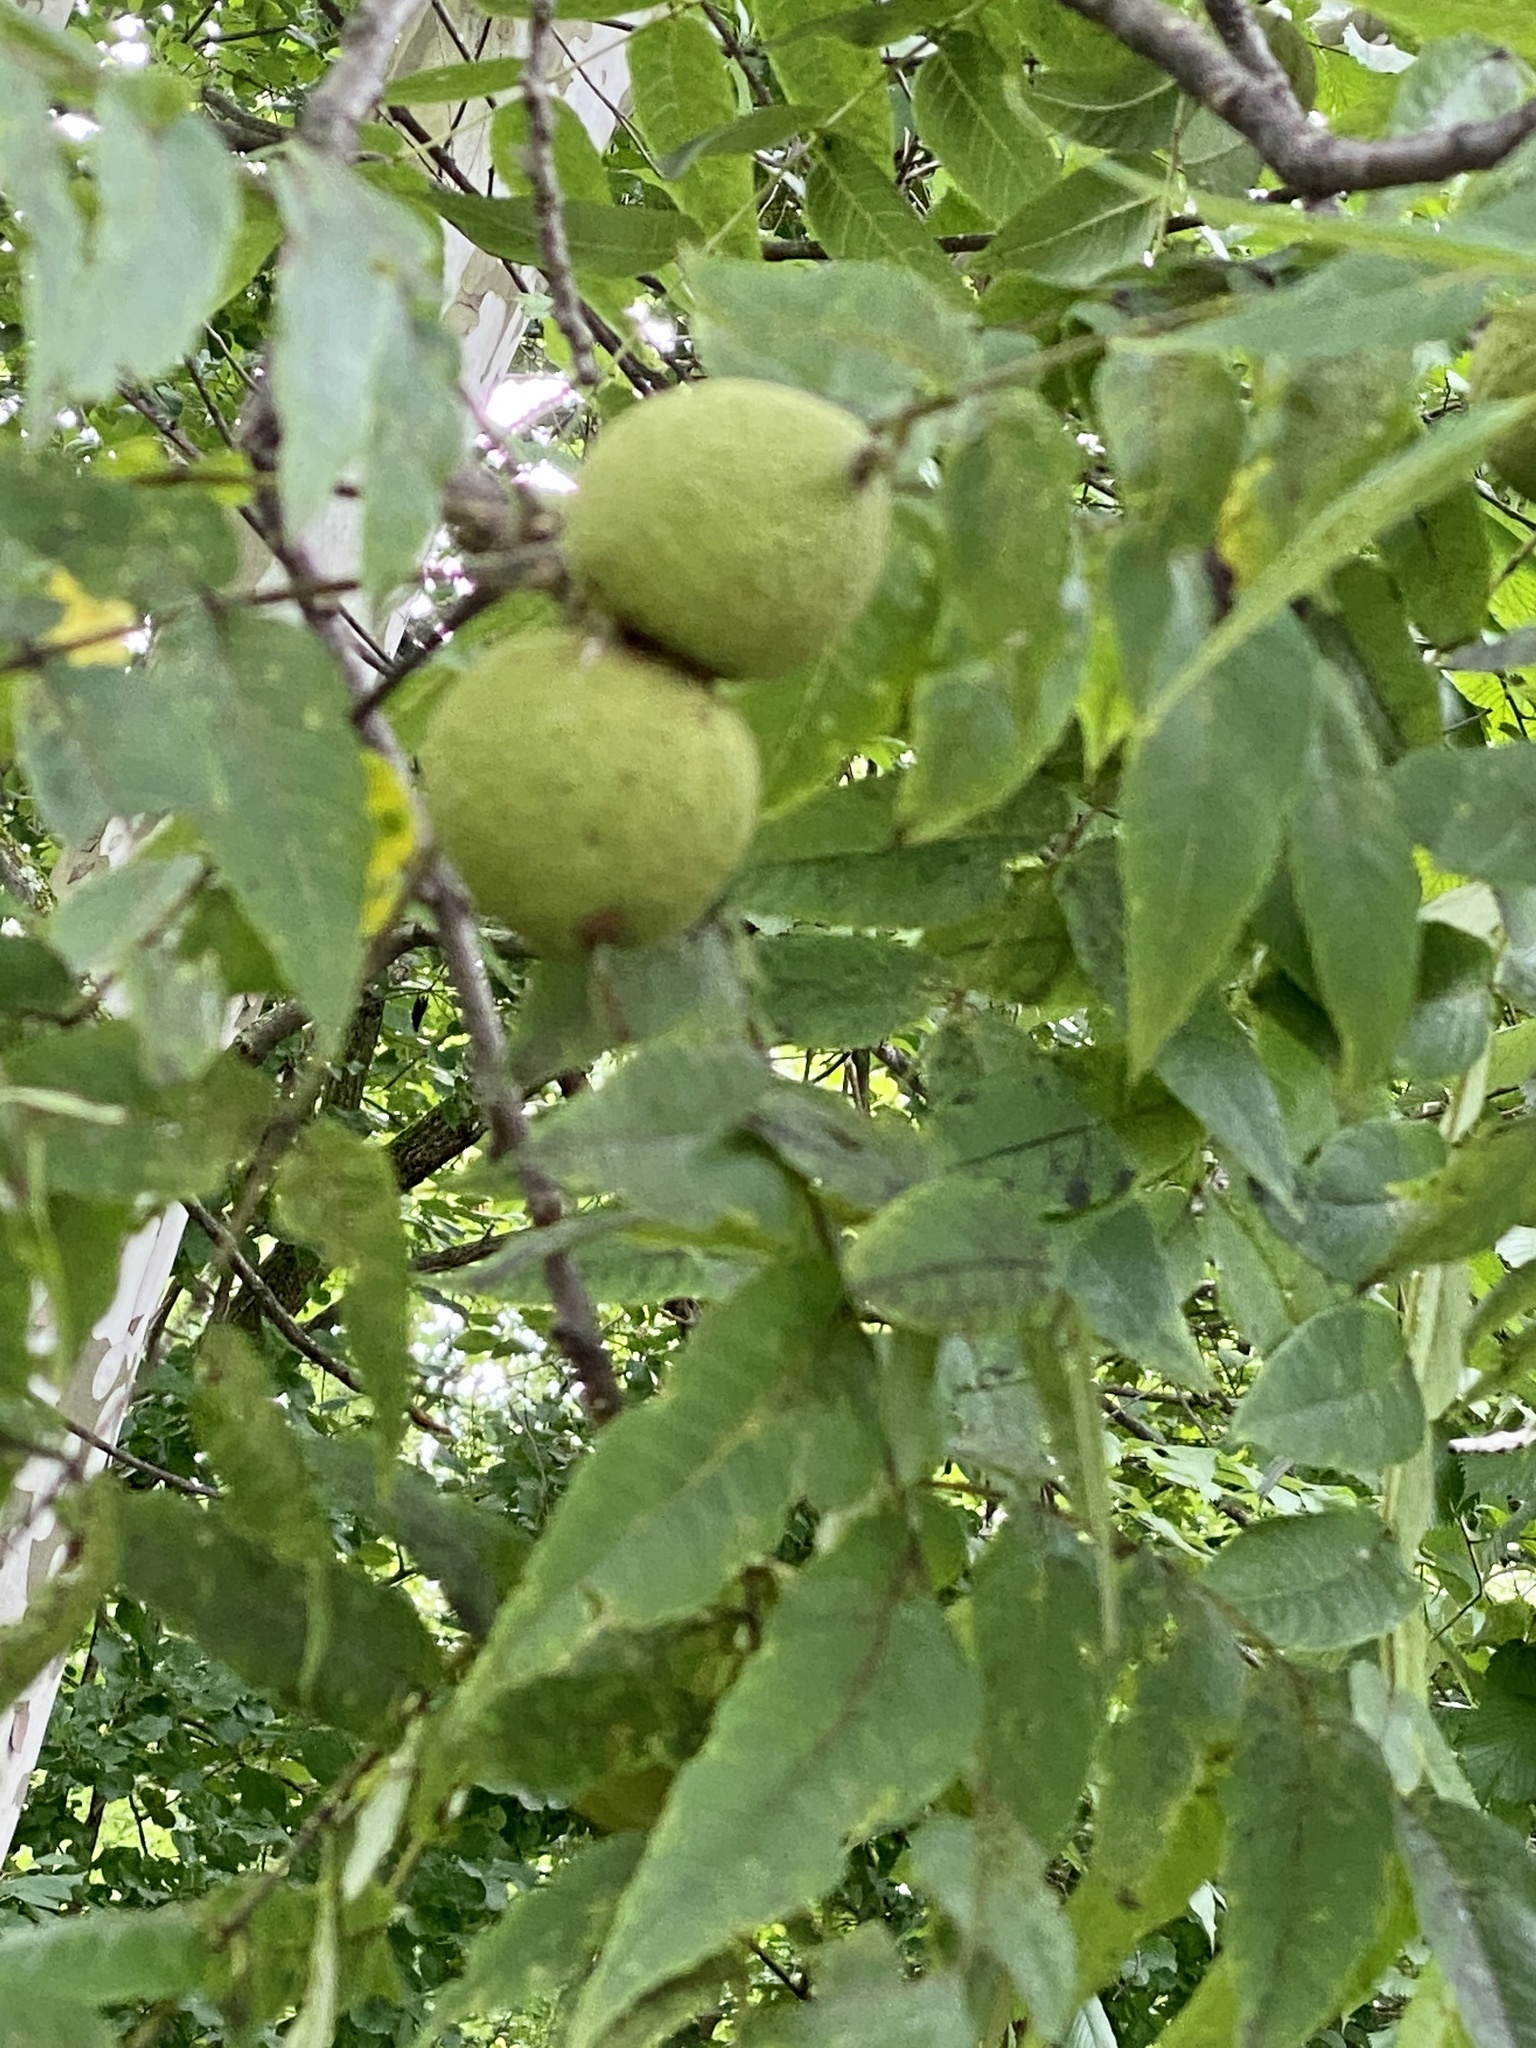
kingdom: Plantae
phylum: Tracheophyta
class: Magnoliopsida
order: Fagales
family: Juglandaceae
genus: Juglans
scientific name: Juglans nigra
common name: Black walnut
